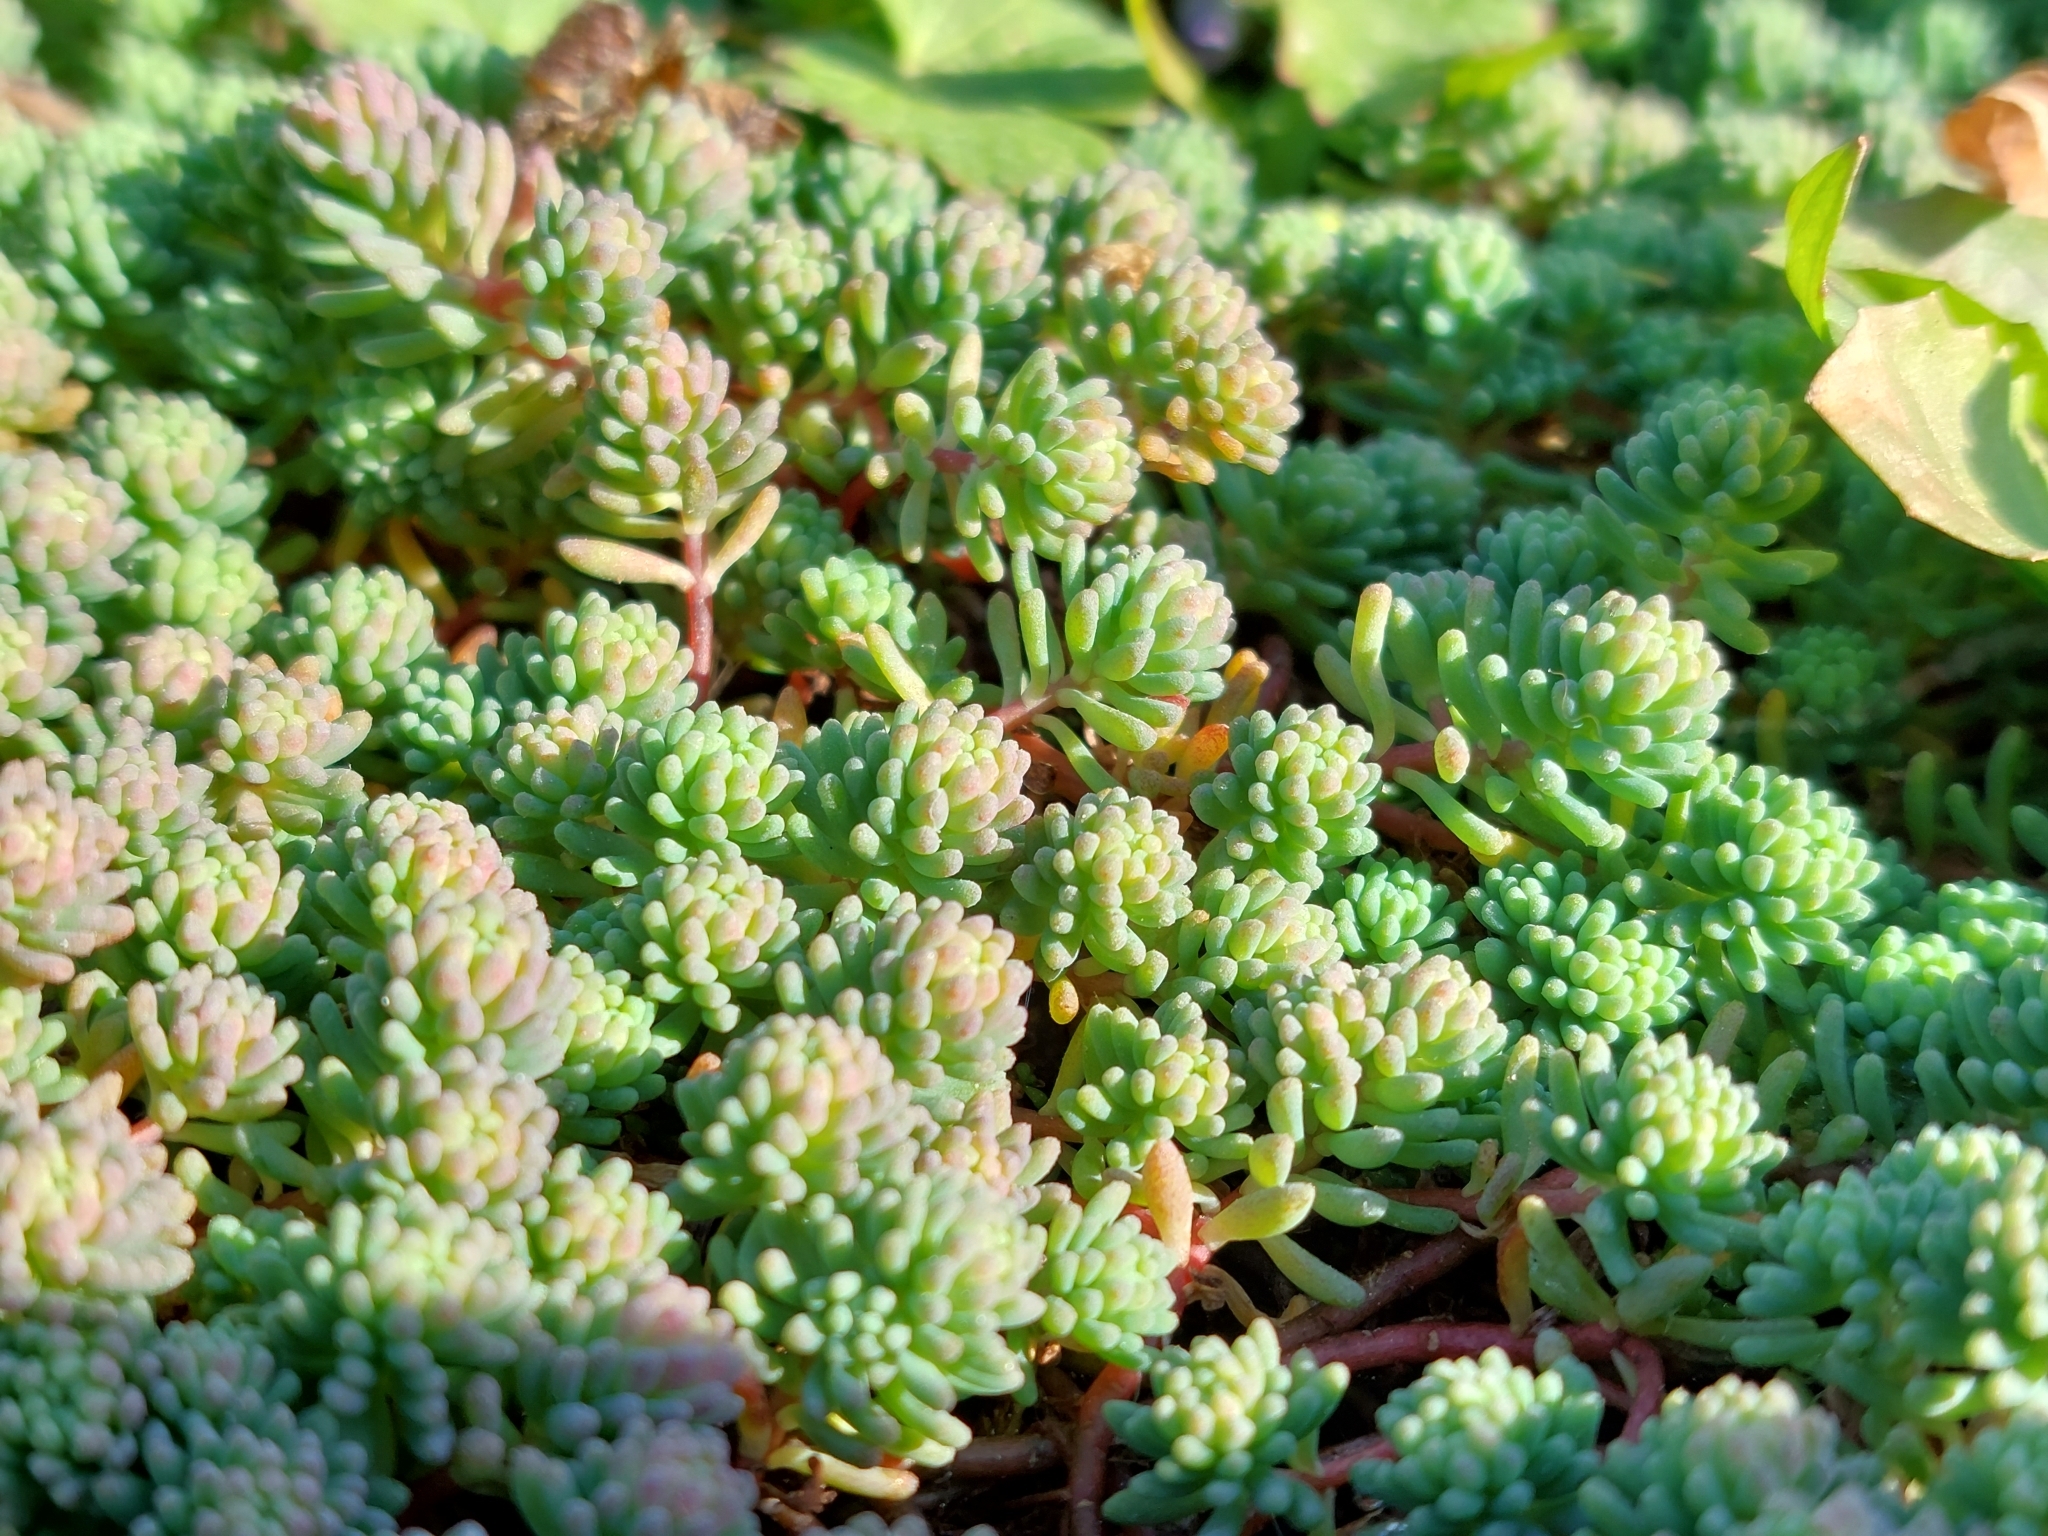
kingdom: Plantae
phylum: Tracheophyta
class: Magnoliopsida
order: Saxifragales
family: Crassulaceae
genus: Sedum
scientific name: Sedum pallidum
